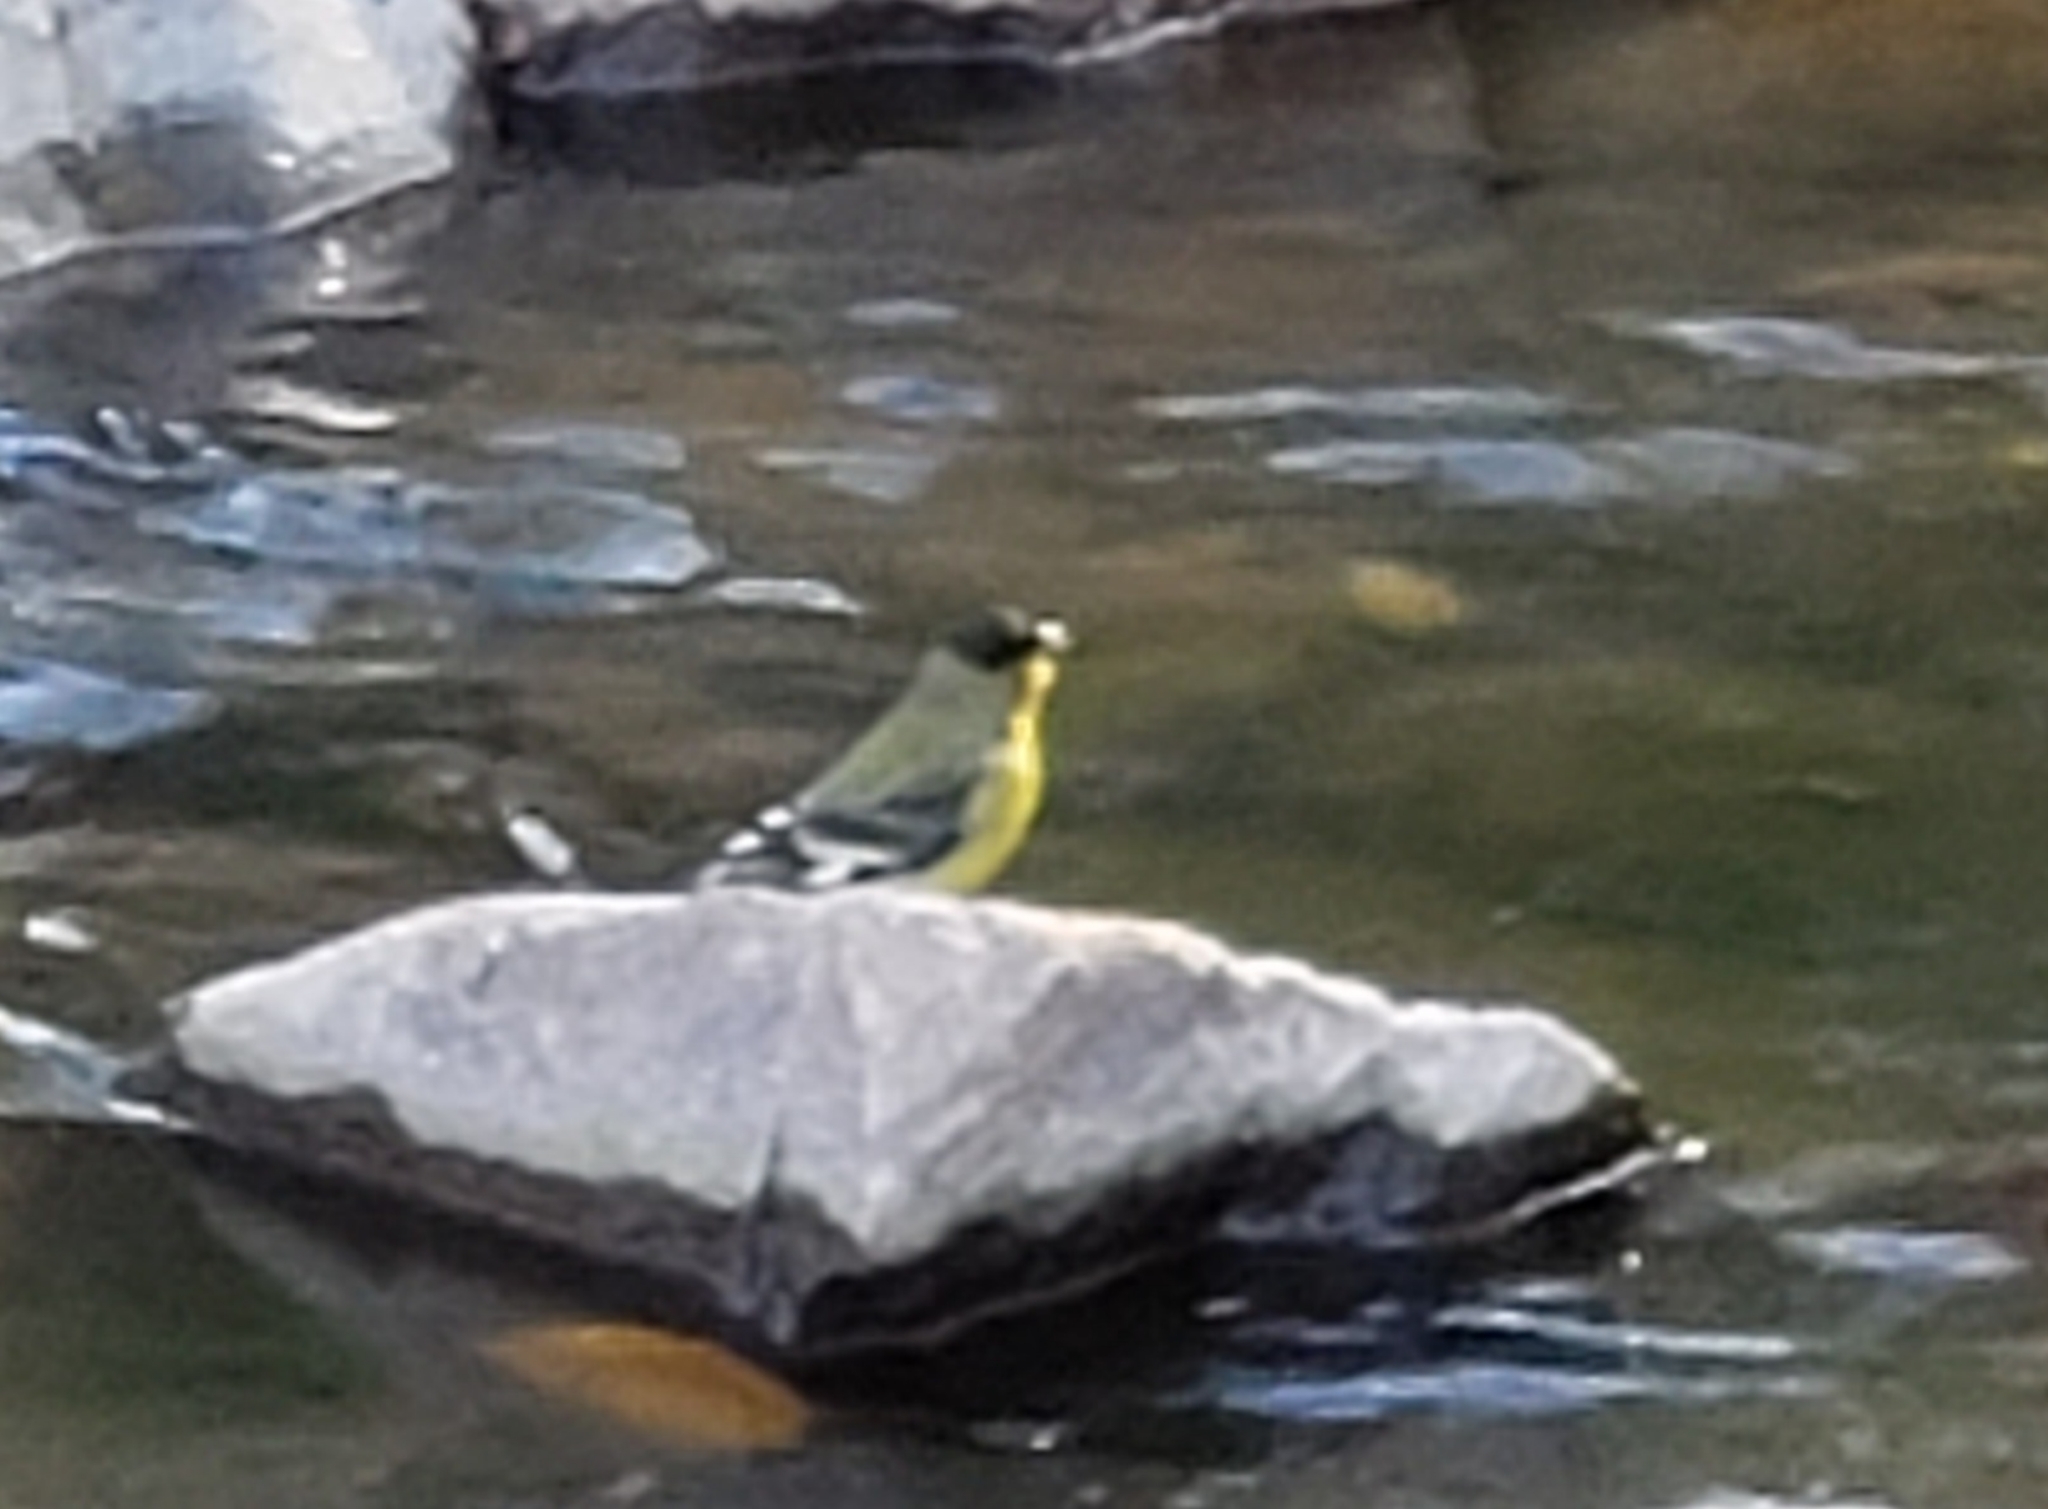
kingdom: Animalia
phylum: Chordata
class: Aves
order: Passeriformes
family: Fringillidae
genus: Spinus
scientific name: Spinus psaltria
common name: Lesser goldfinch
